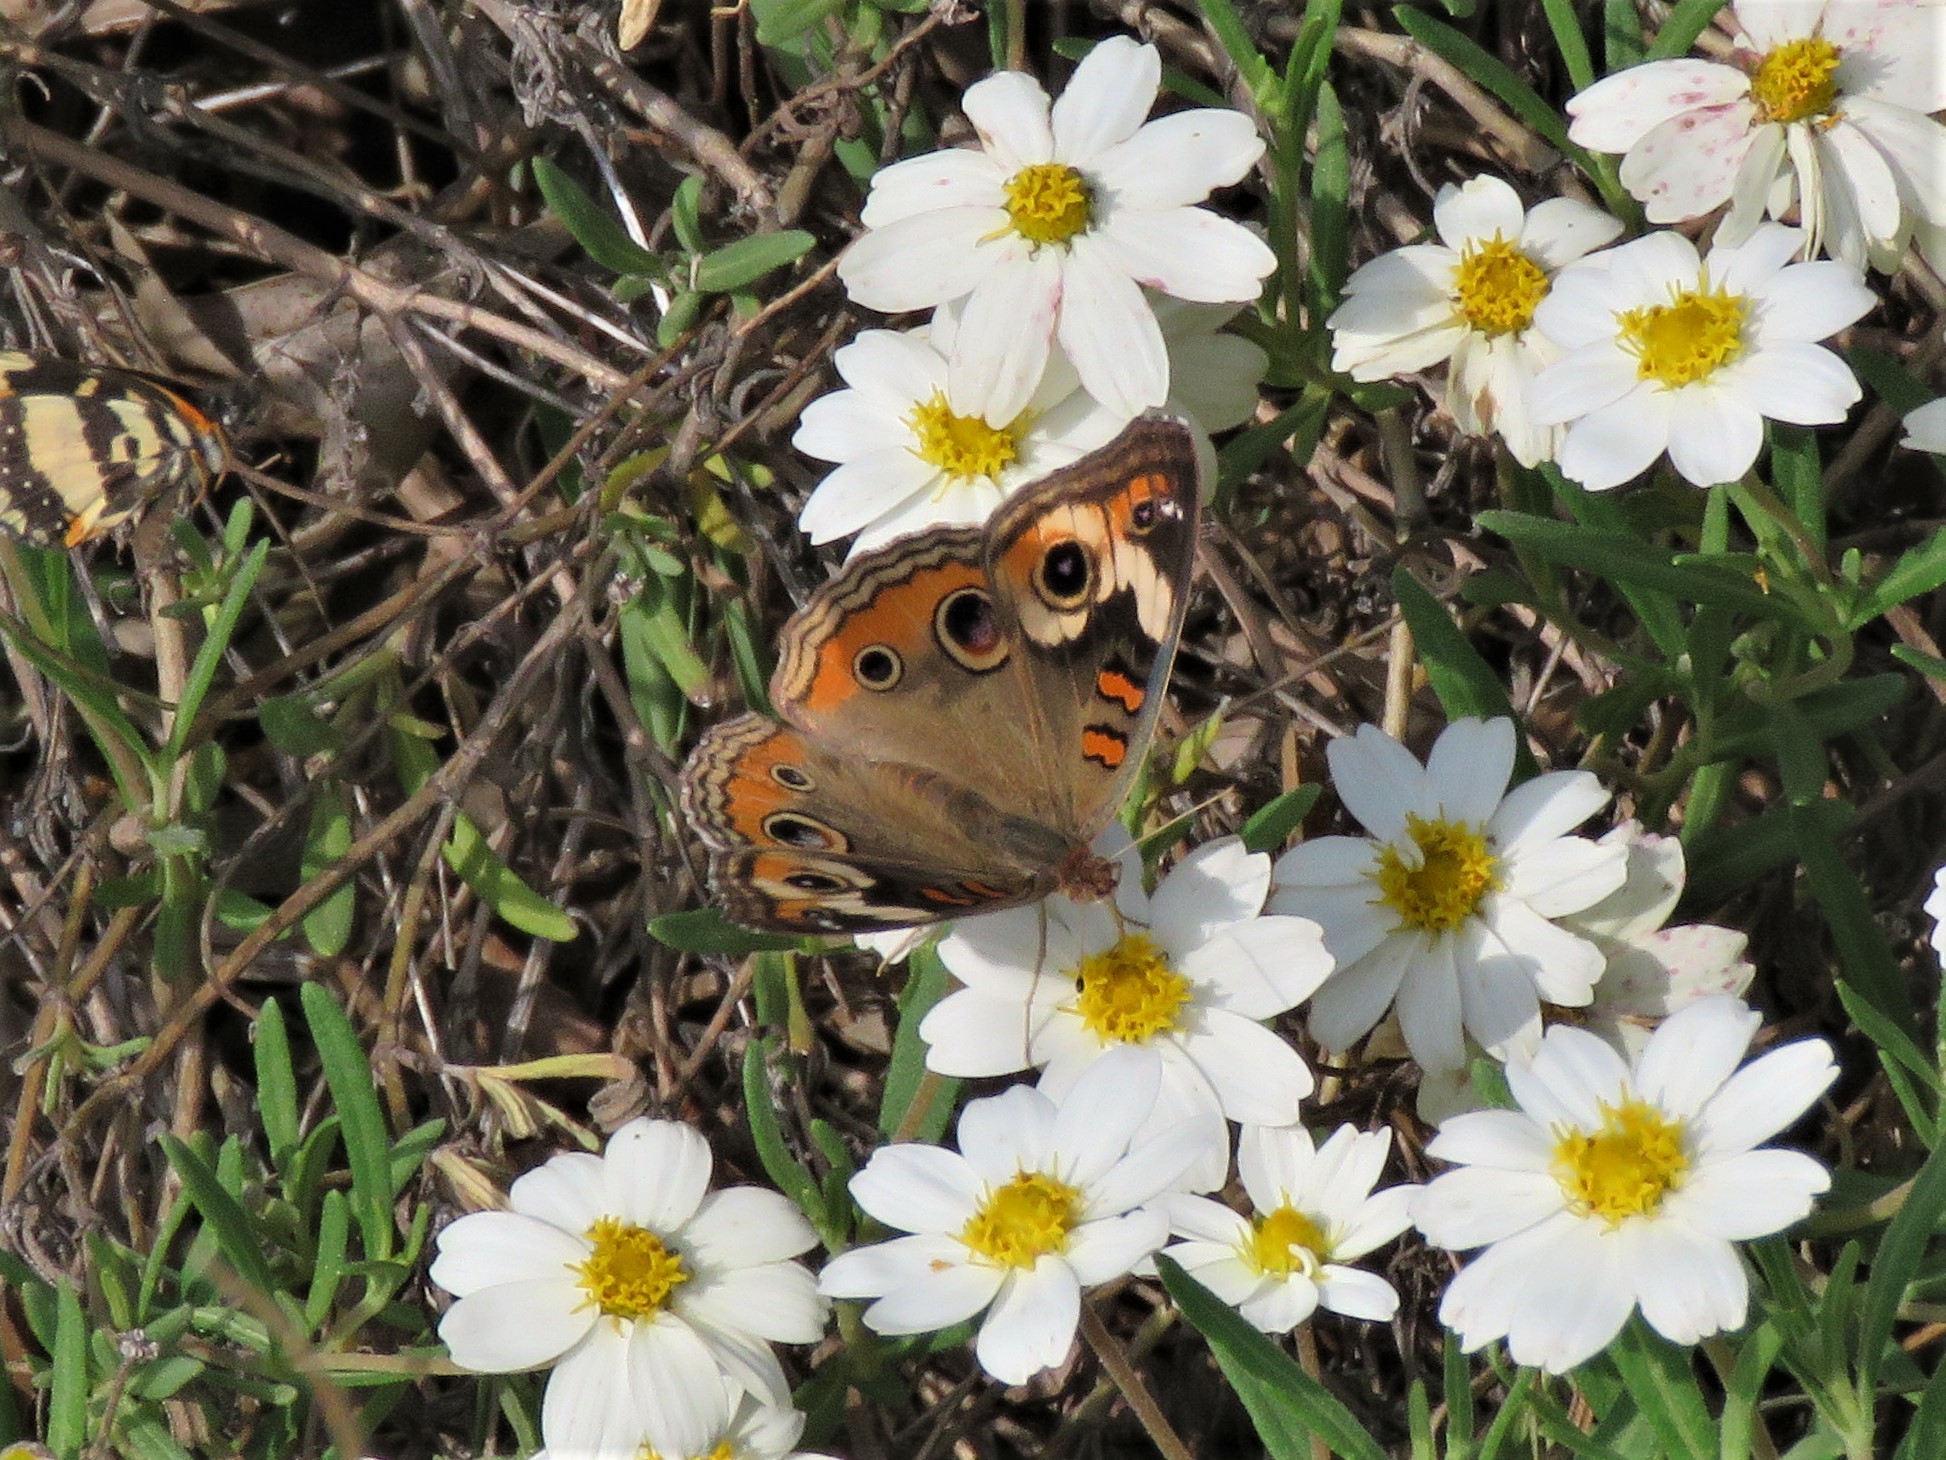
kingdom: Animalia
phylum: Arthropoda
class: Insecta
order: Lepidoptera
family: Nymphalidae
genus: Junonia
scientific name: Junonia coenia
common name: Common buckeye
